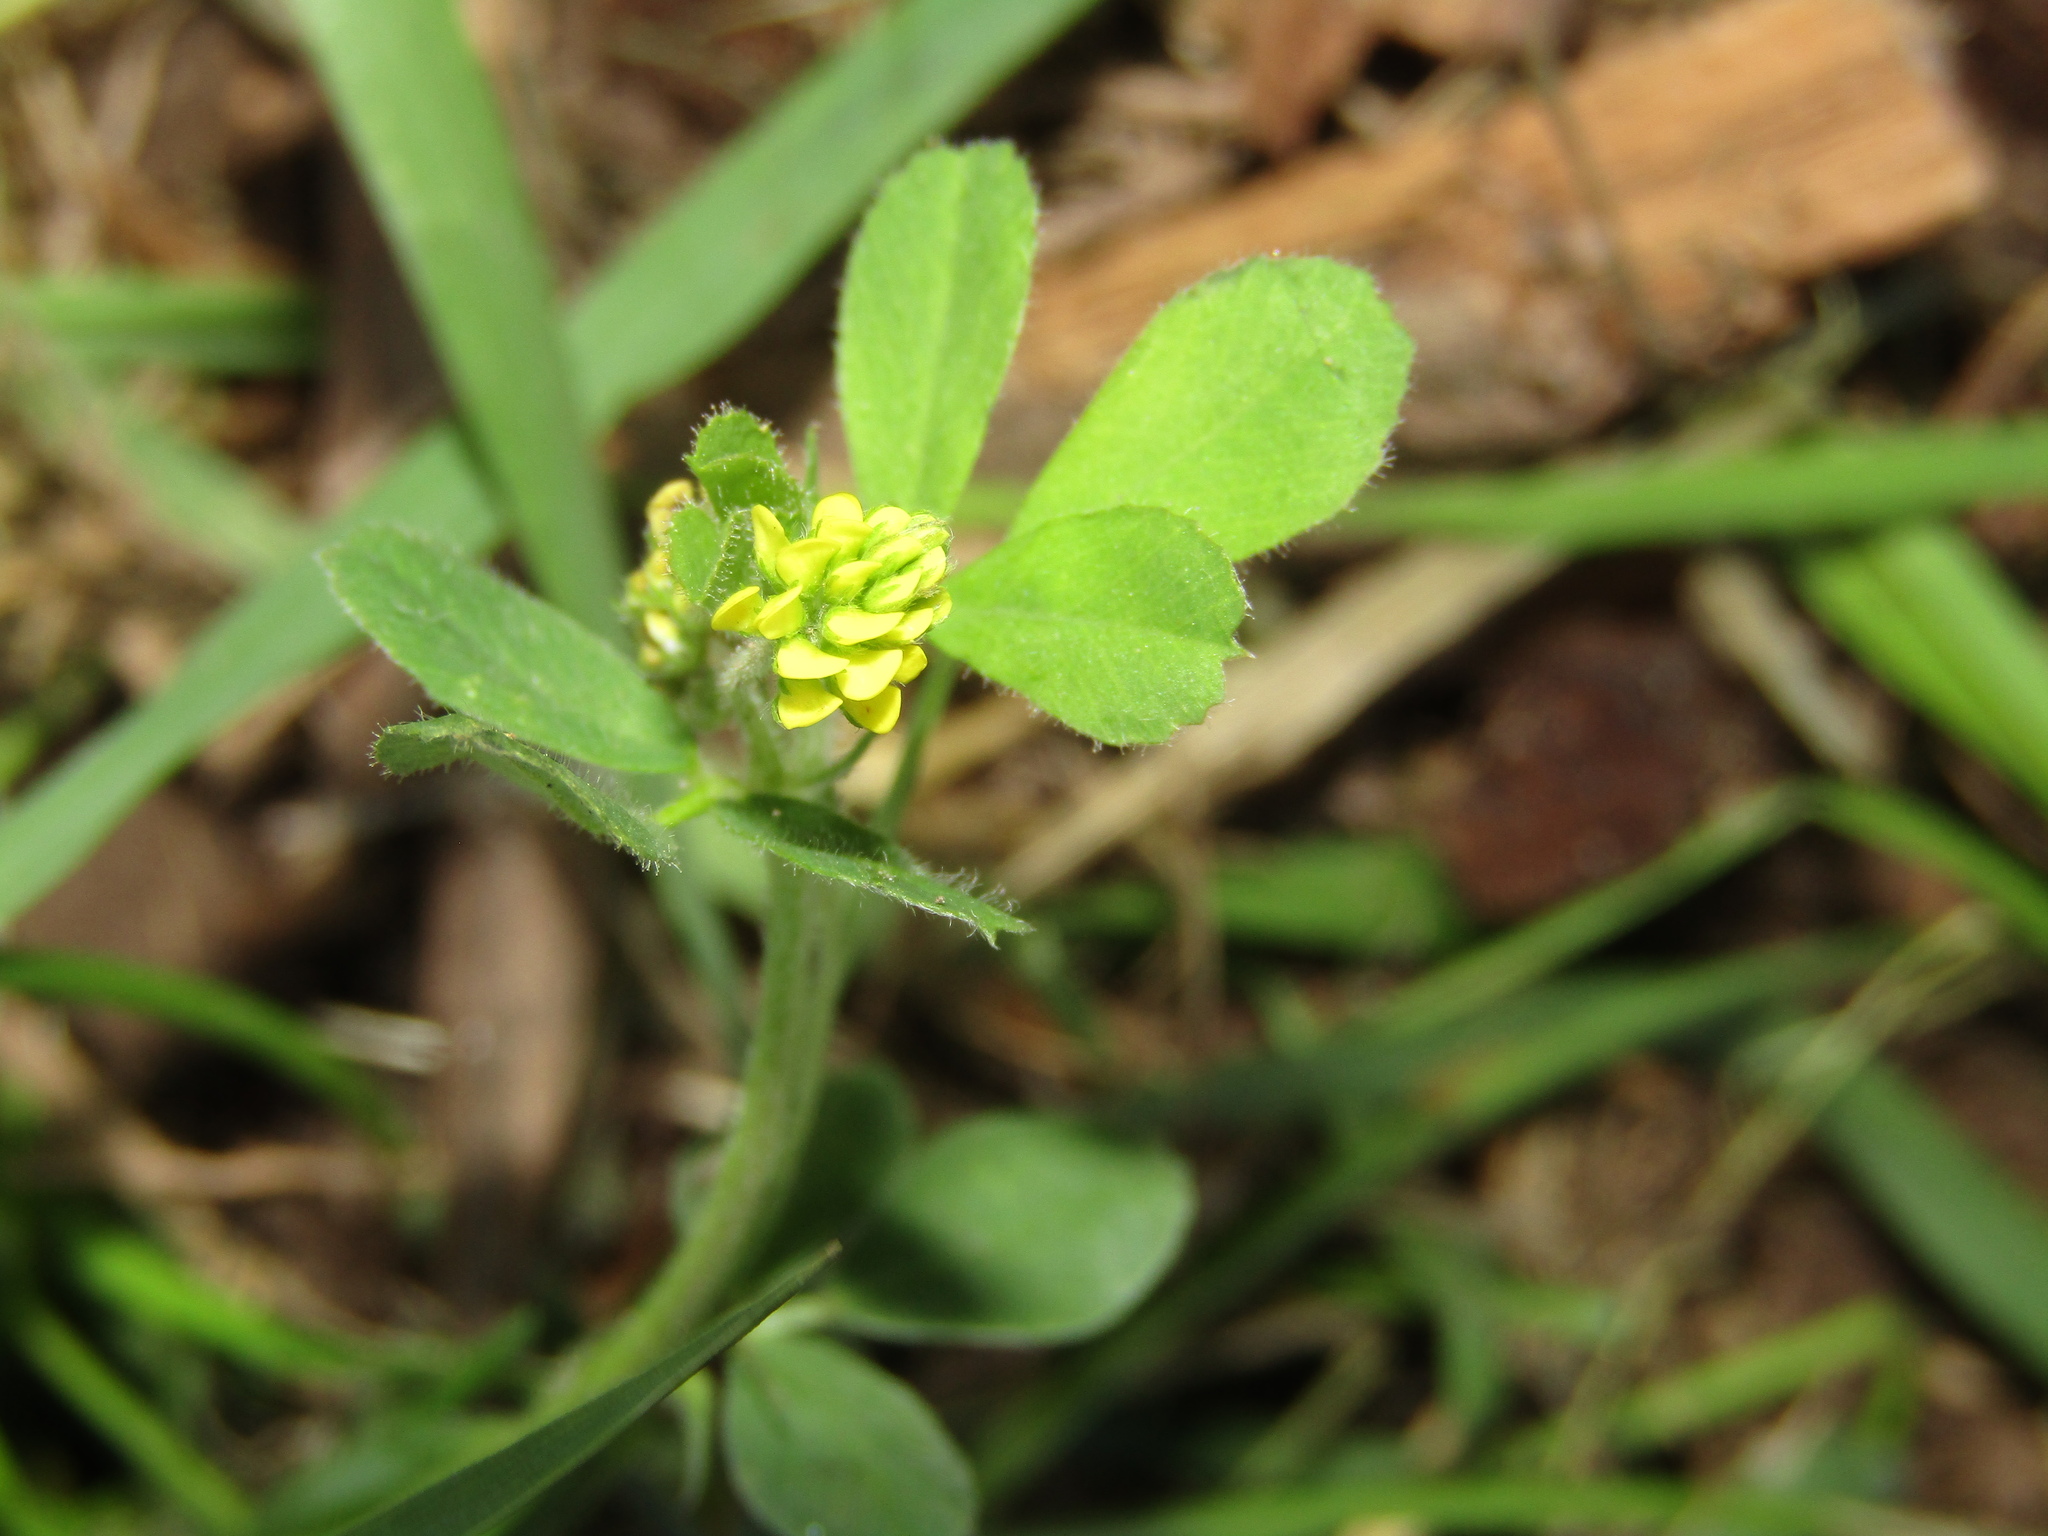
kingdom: Plantae
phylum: Tracheophyta
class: Magnoliopsida
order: Fabales
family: Fabaceae
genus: Medicago
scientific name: Medicago lupulina
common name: Black medick
